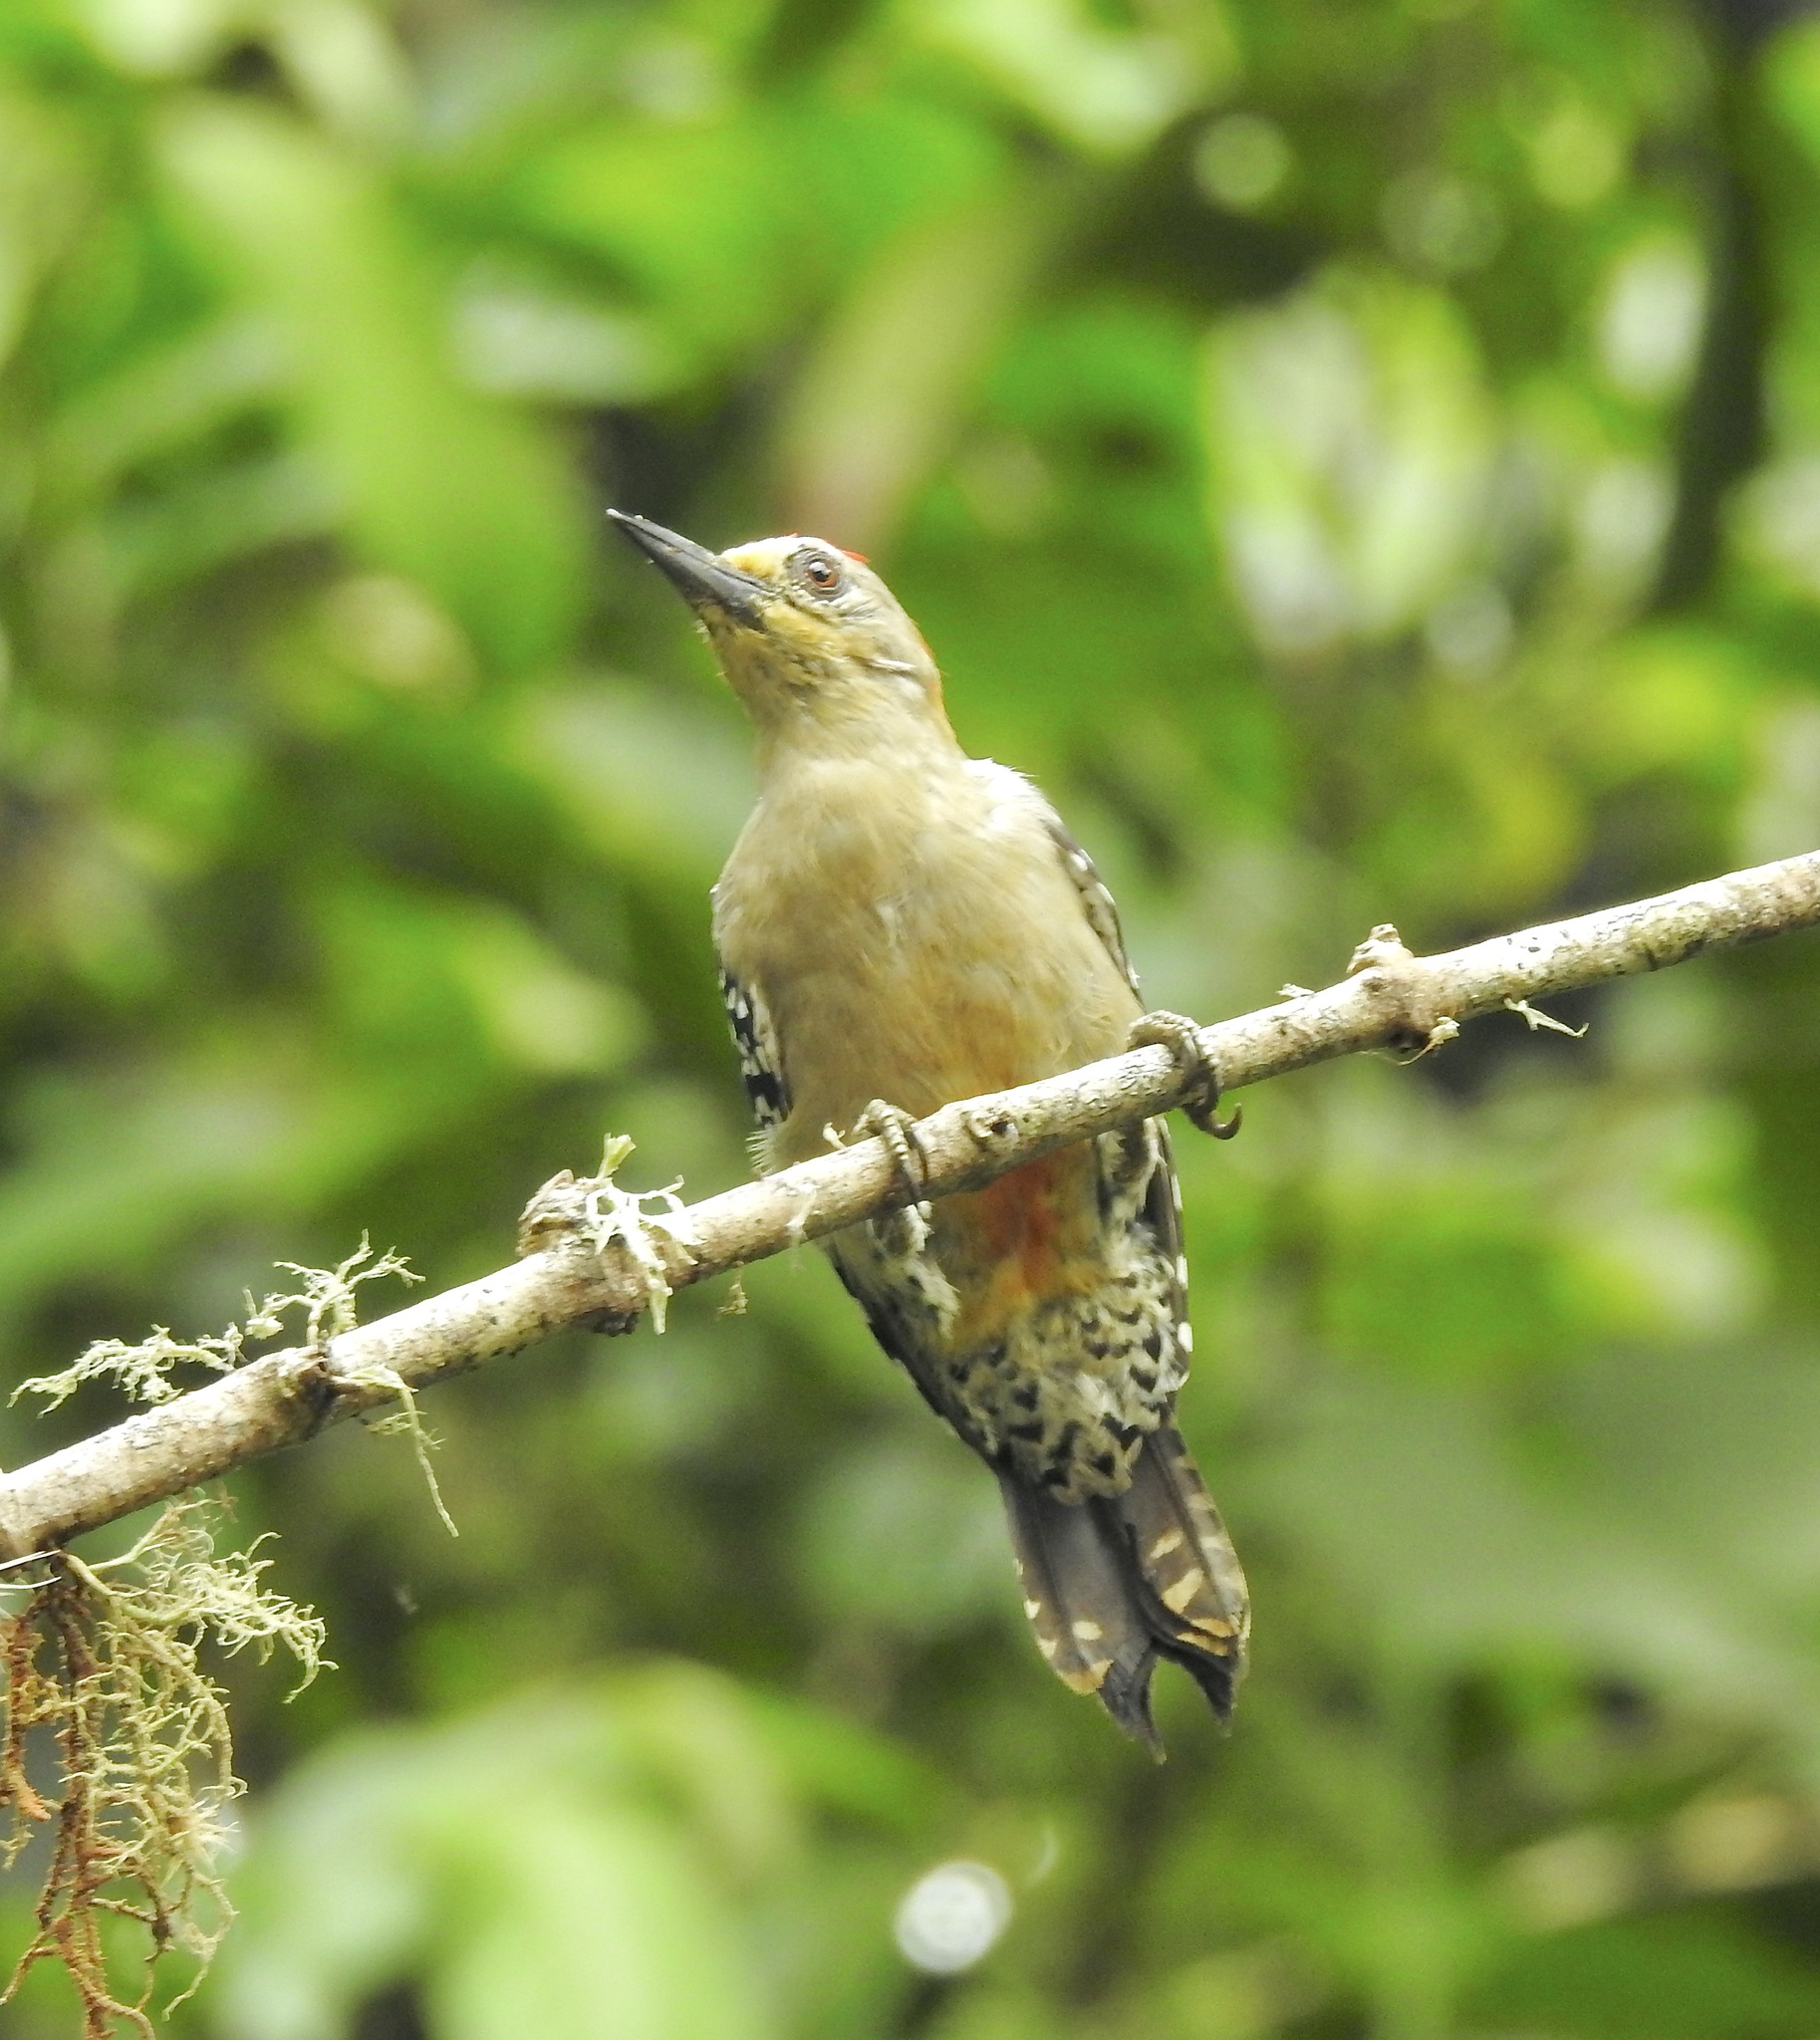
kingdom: Animalia
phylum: Chordata
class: Aves
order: Piciformes
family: Picidae
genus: Melanerpes
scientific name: Melanerpes rubricapillus
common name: Red-crowned woodpecker
